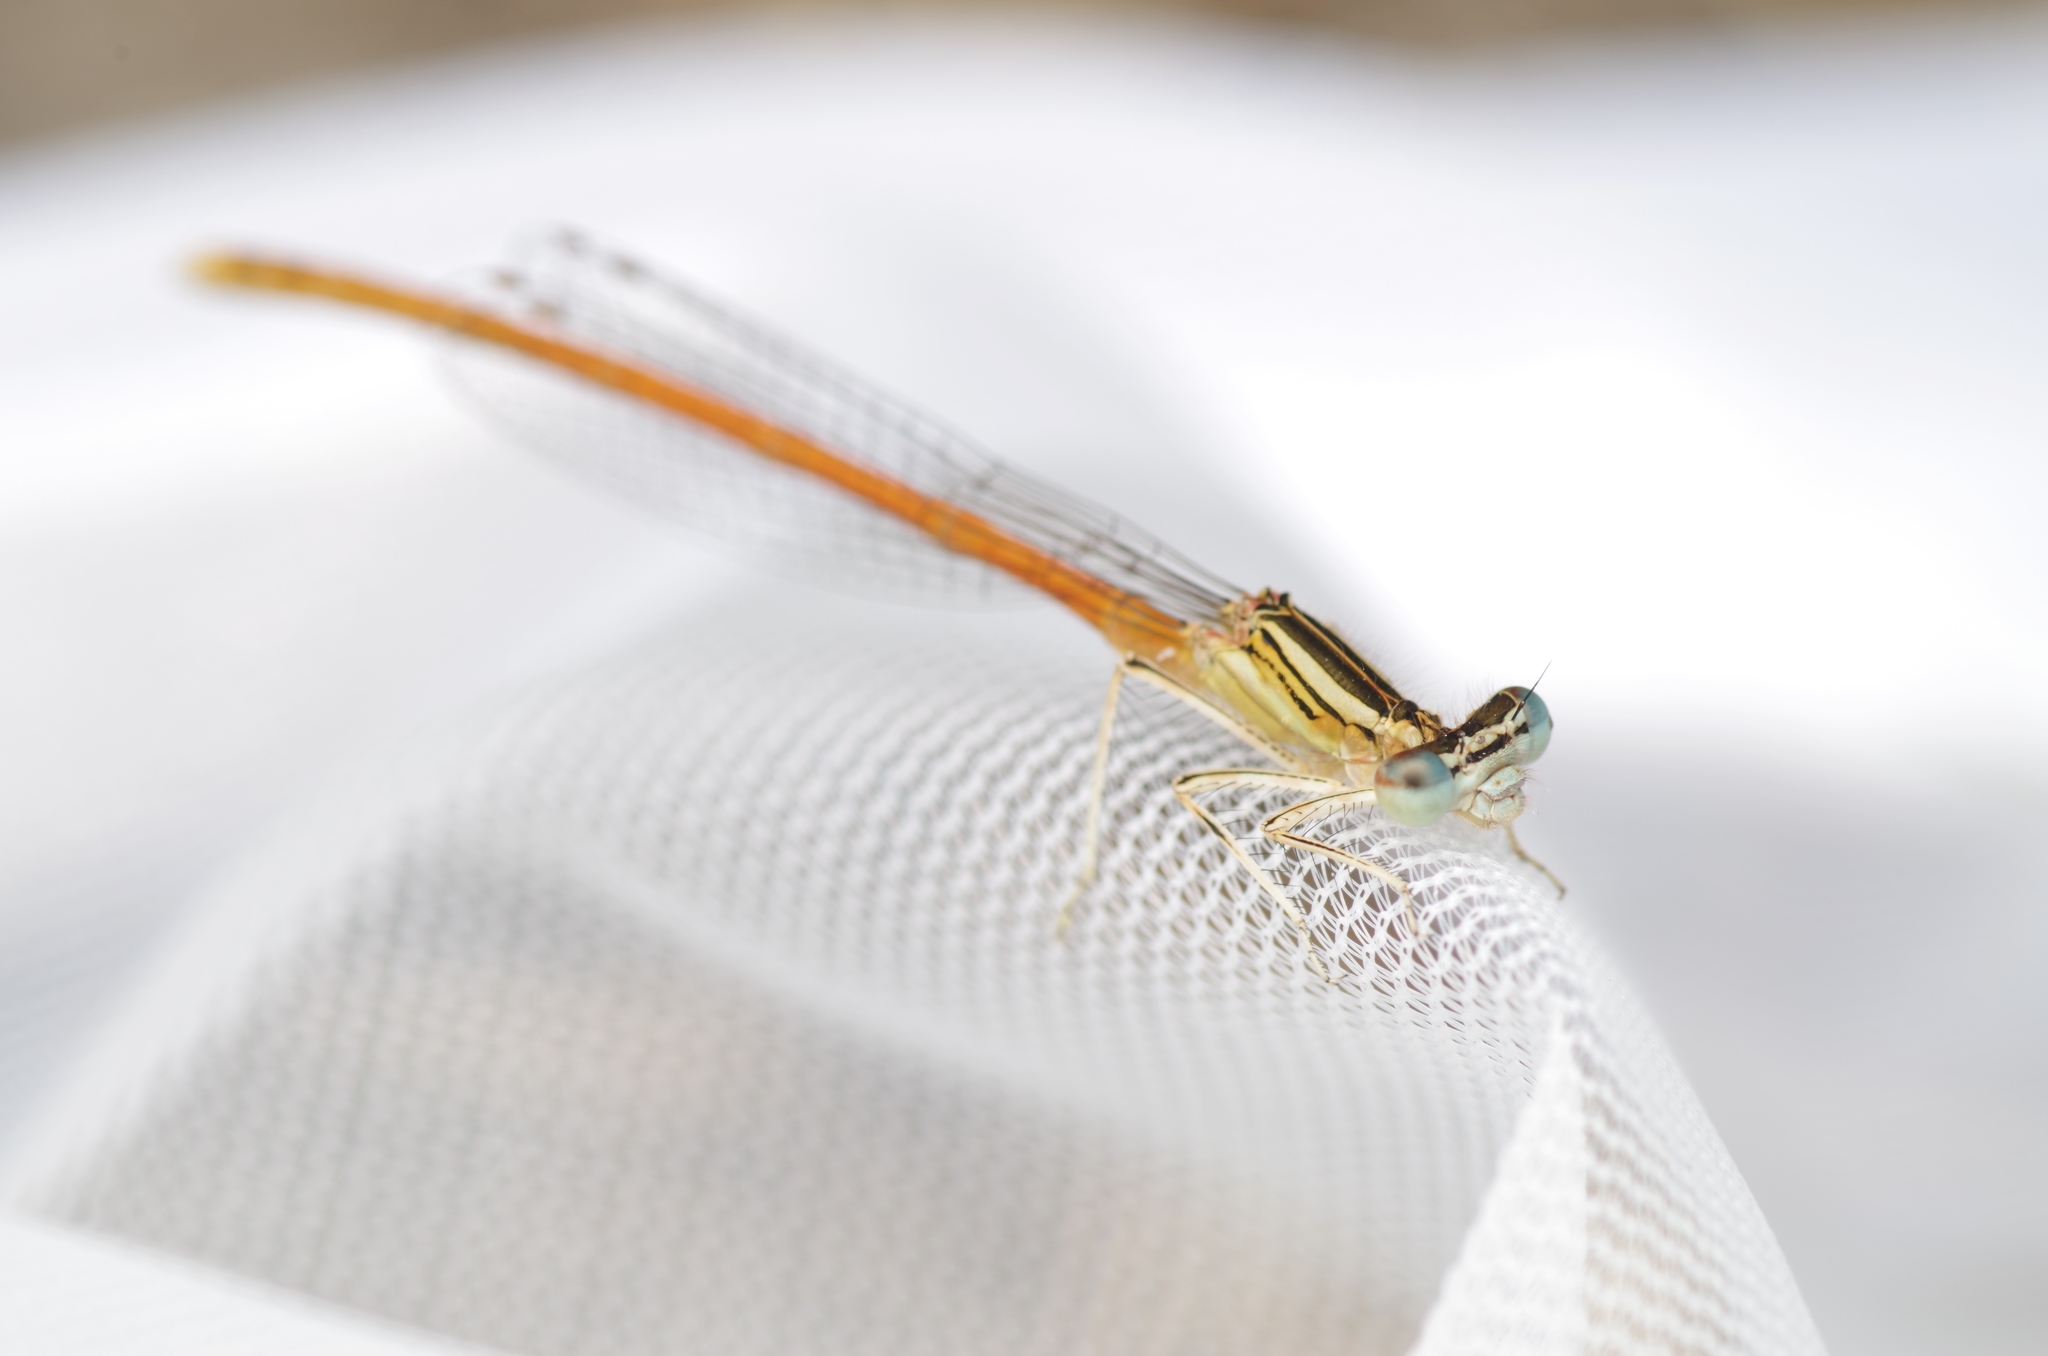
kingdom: Animalia
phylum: Arthropoda
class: Insecta
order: Odonata
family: Platycnemididae
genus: Platycnemis
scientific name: Platycnemis acutipennis
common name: Orange featherleg
